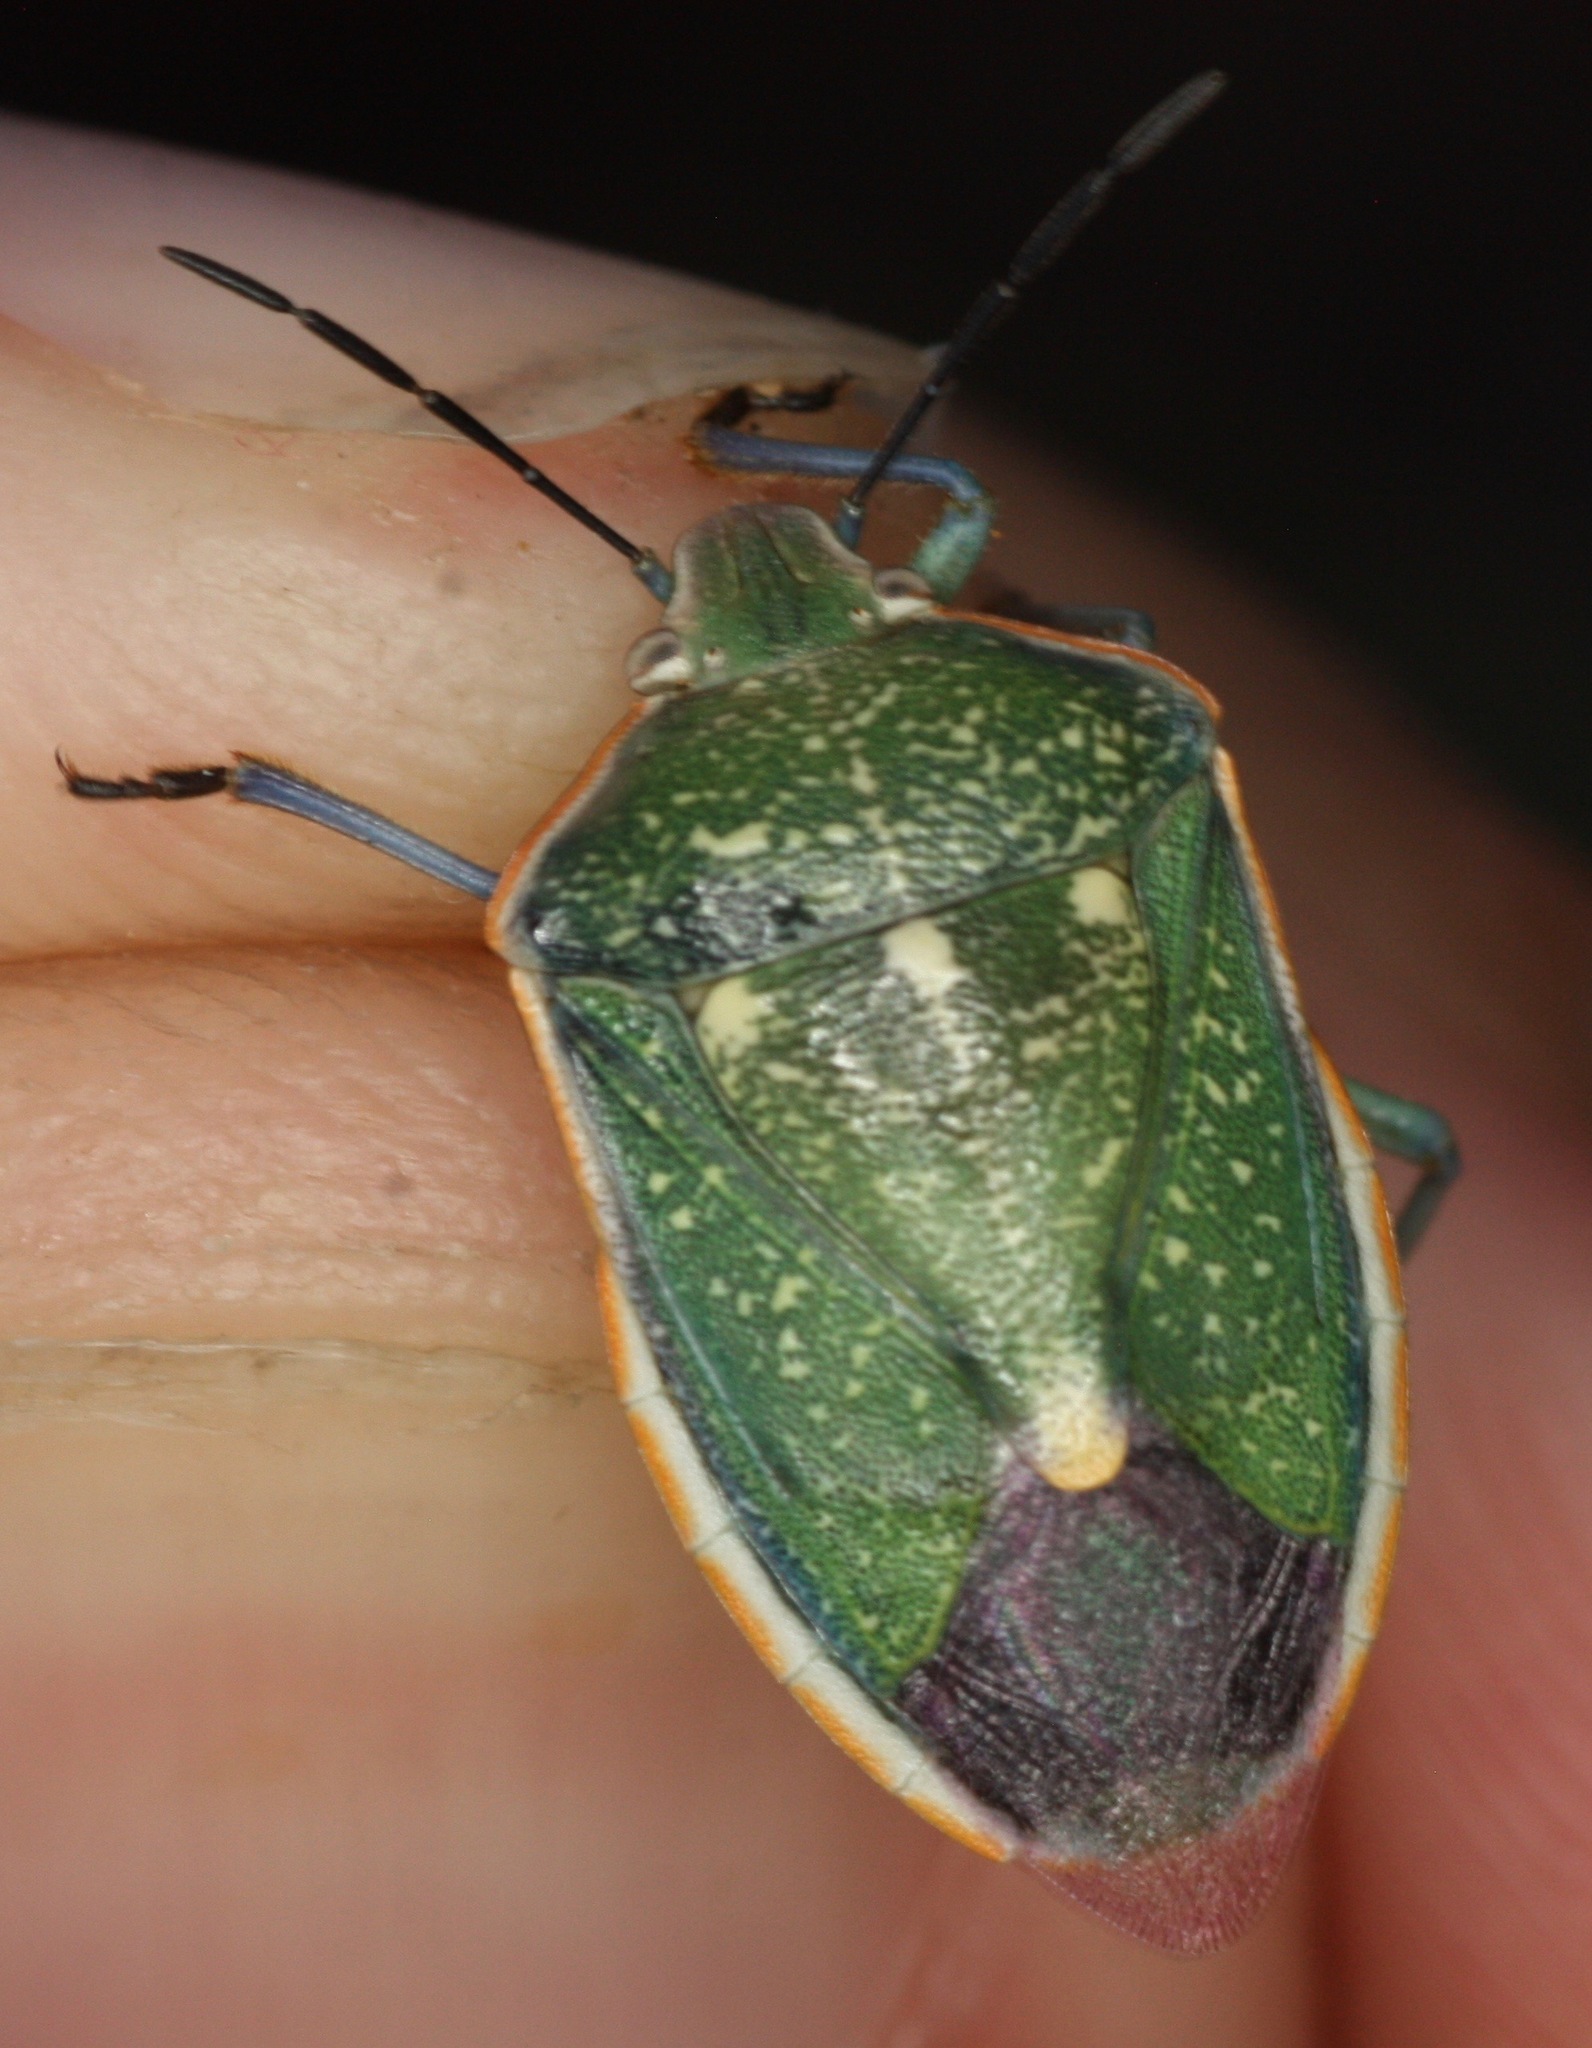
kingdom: Animalia
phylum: Arthropoda
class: Insecta
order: Hemiptera
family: Pentatomidae
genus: Chlorochroa
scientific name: Chlorochroa sayi
